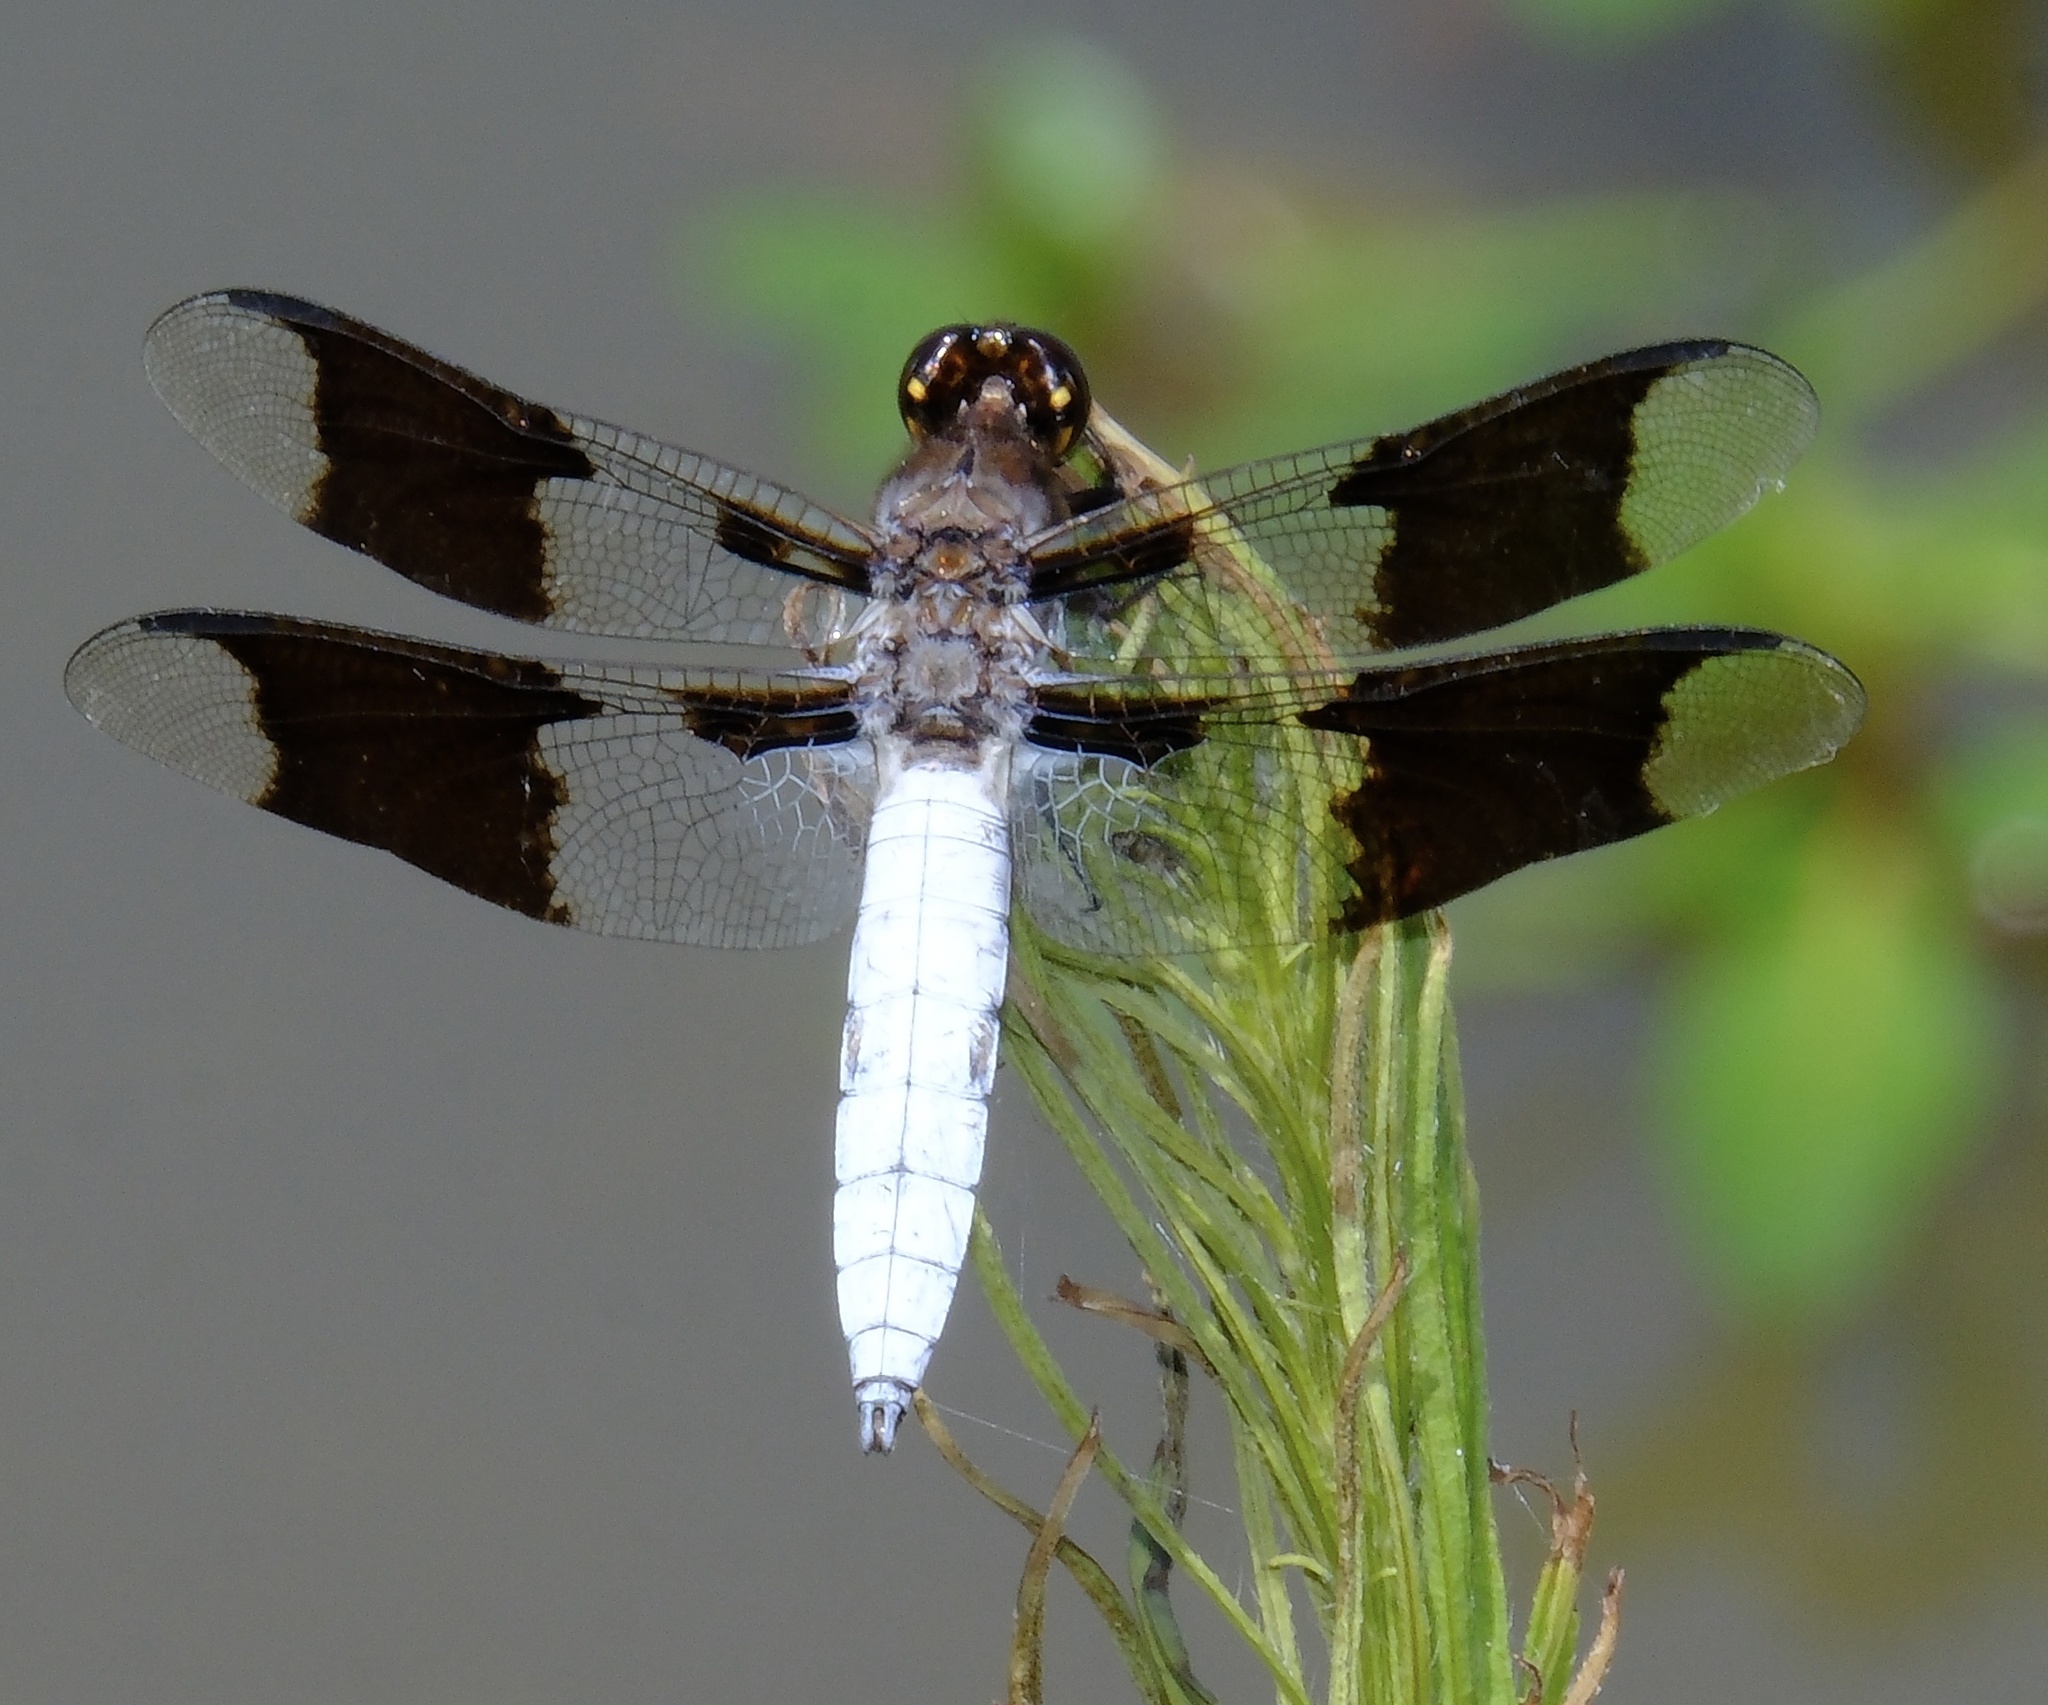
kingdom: Animalia
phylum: Arthropoda
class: Insecta
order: Odonata
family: Libellulidae
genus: Plathemis
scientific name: Plathemis lydia
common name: Common whitetail
